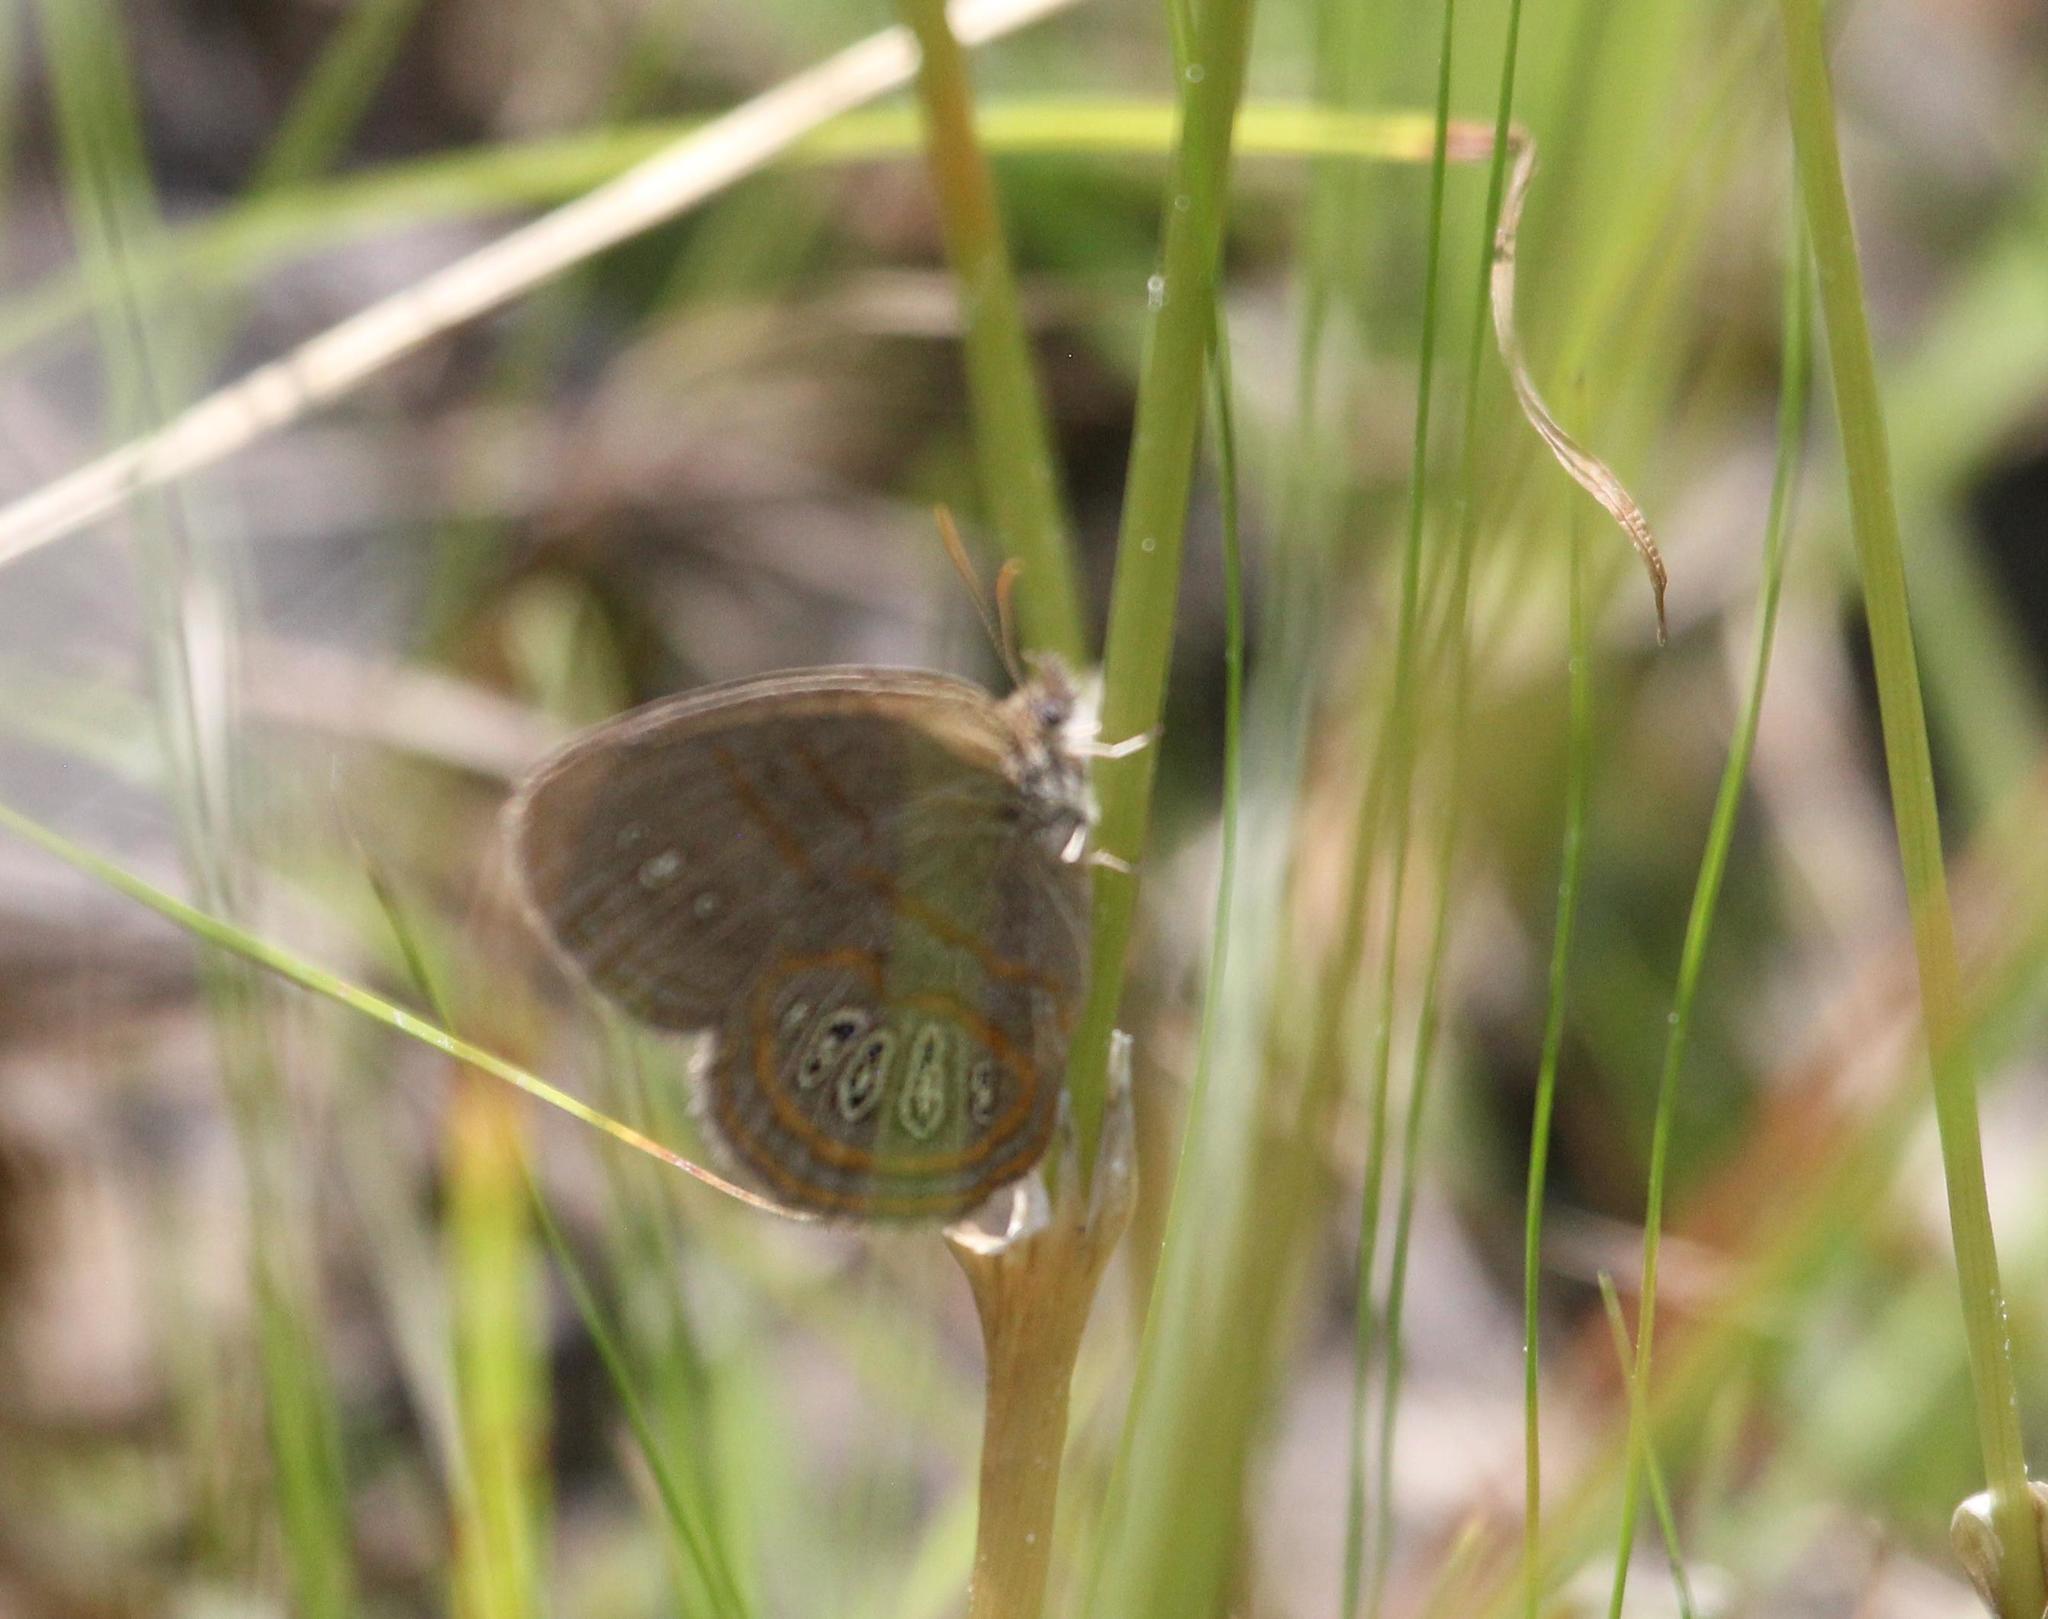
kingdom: Animalia
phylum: Arthropoda
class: Insecta
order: Lepidoptera
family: Nymphalidae
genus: Euptychia
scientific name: Euptychia phocion
